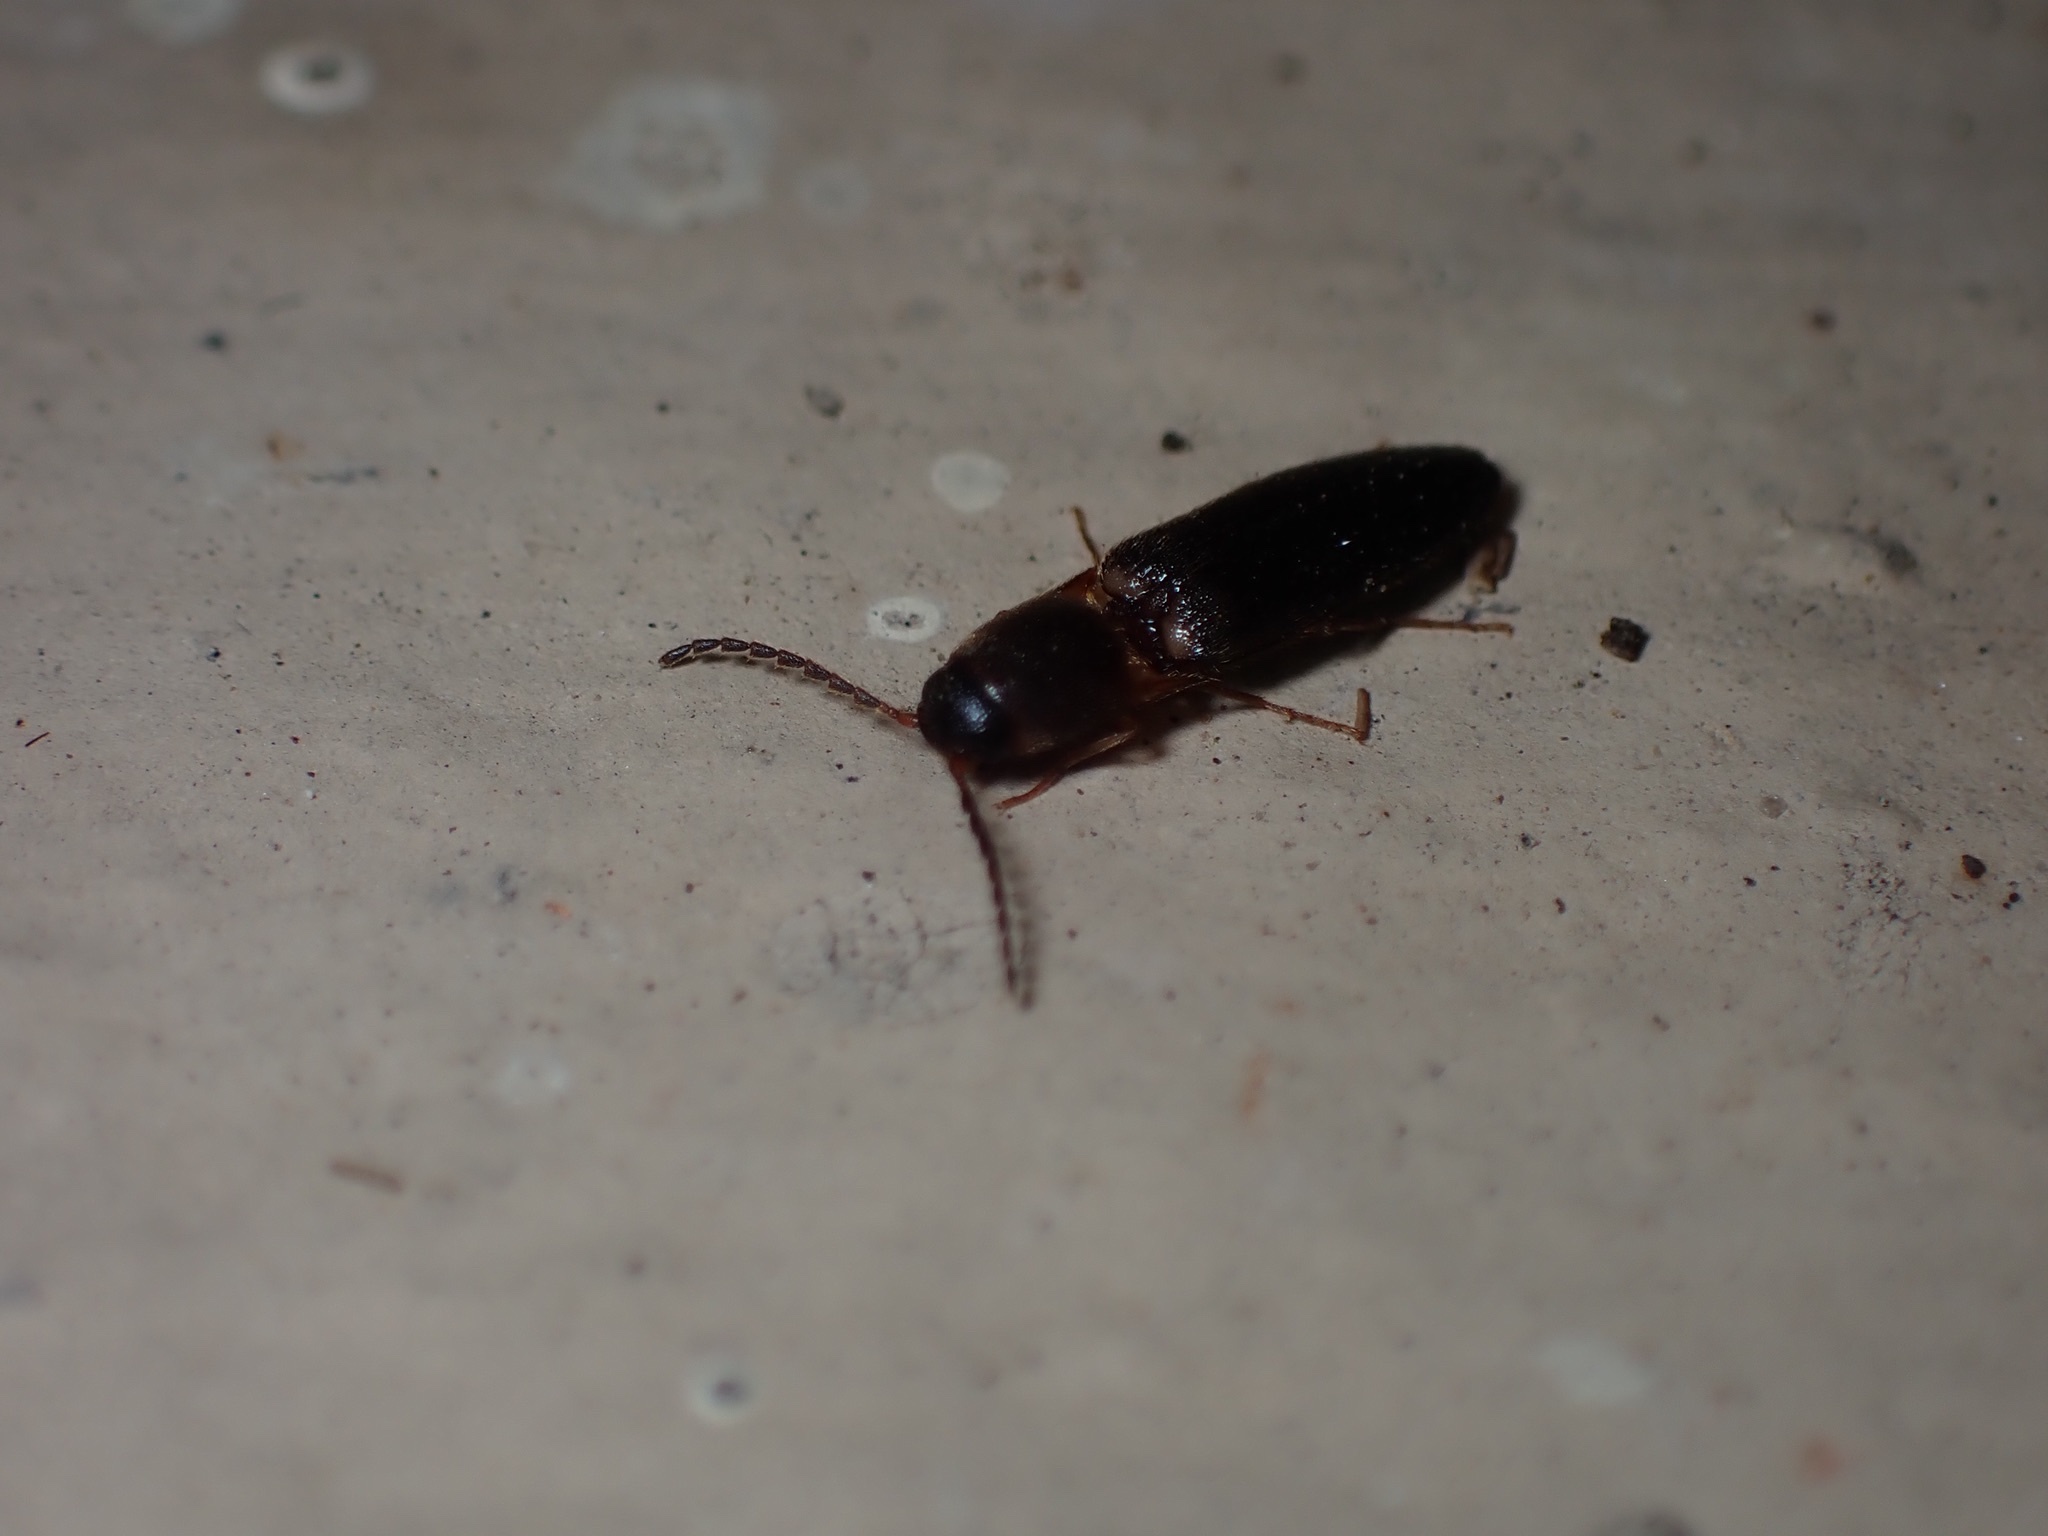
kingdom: Animalia
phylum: Arthropoda
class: Insecta
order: Coleoptera
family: Elateridae
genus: Megapenthes
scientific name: Megapenthes
